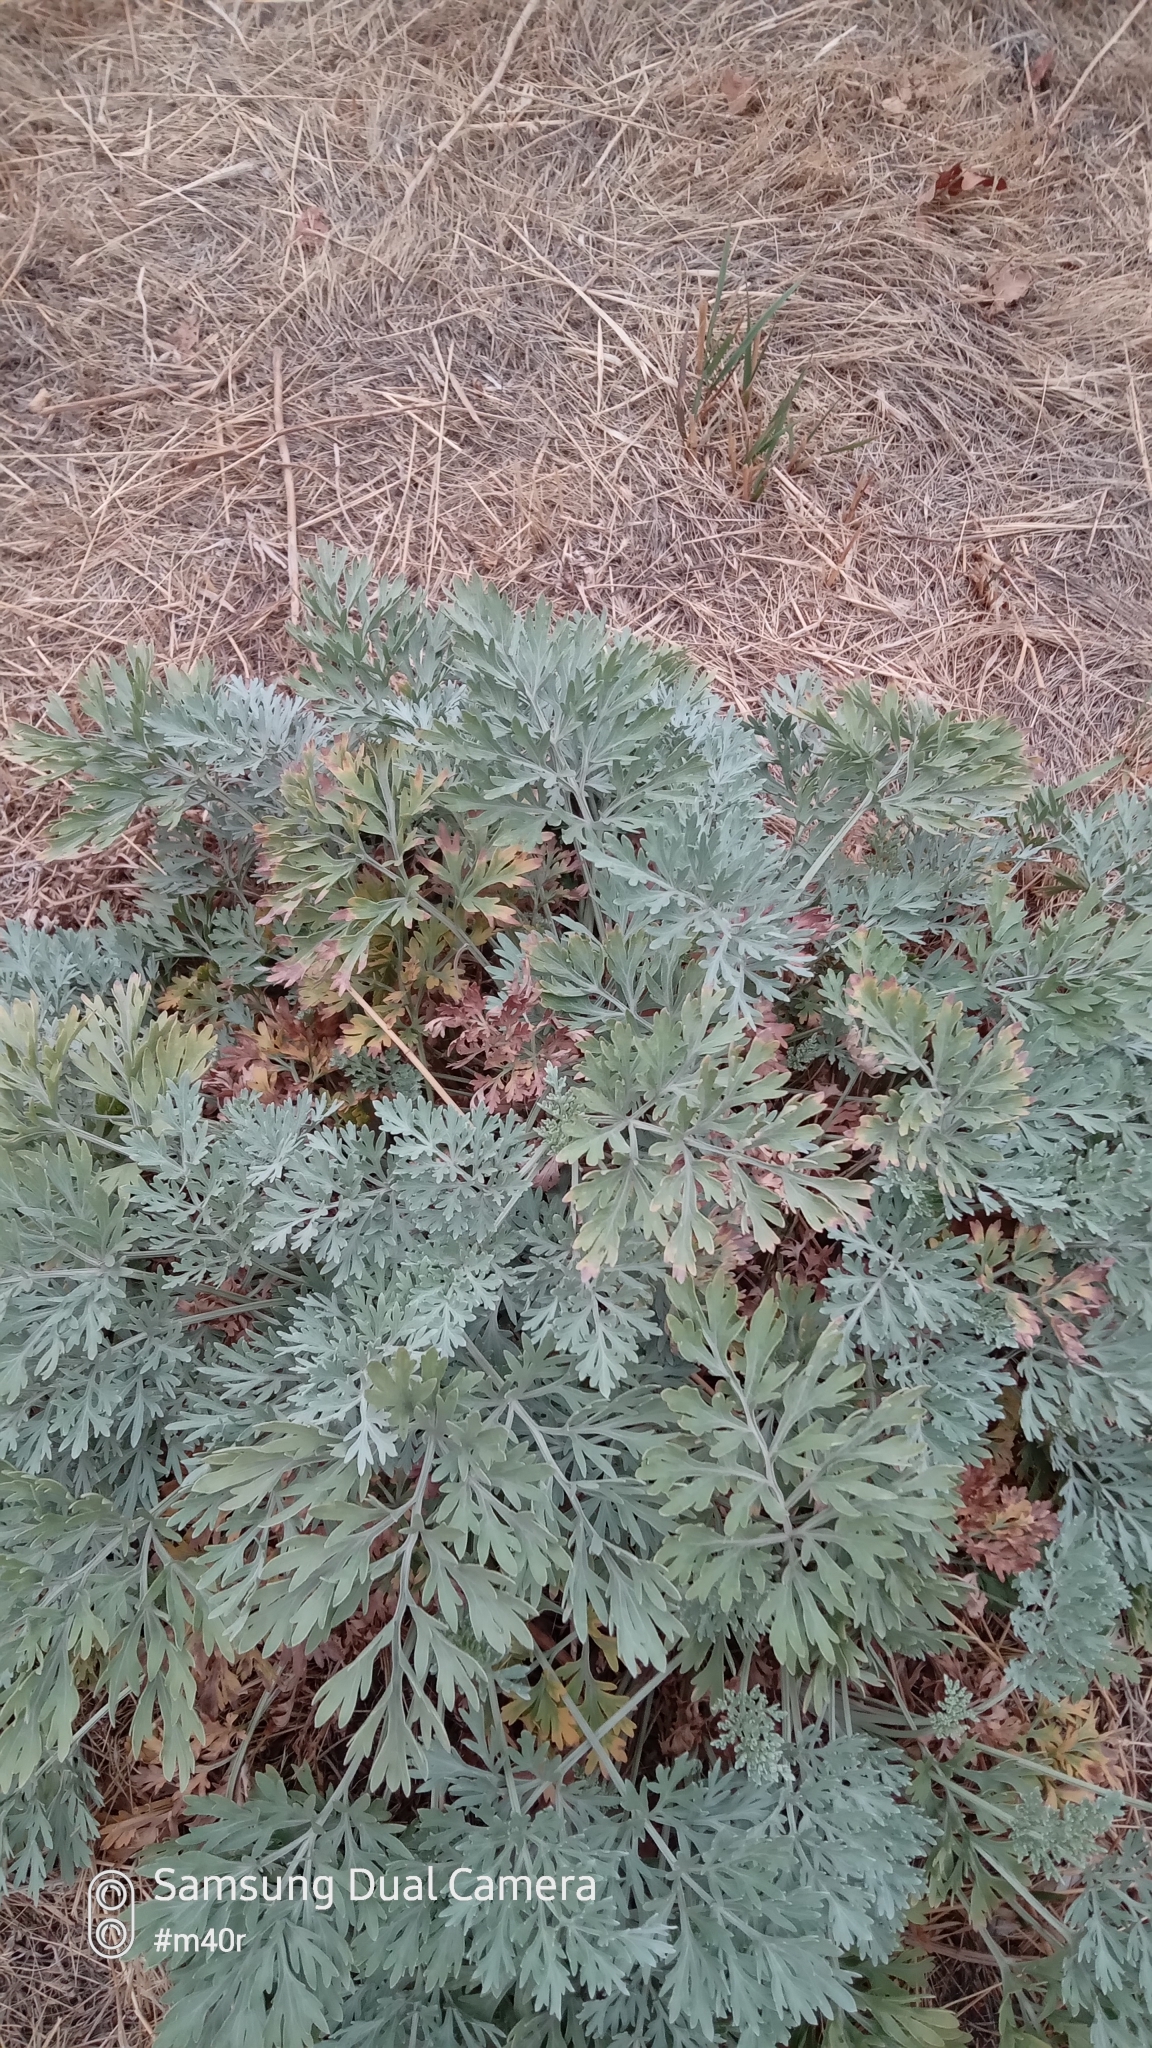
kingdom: Plantae
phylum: Tracheophyta
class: Magnoliopsida
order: Asterales
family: Asteraceae
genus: Artemisia
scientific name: Artemisia absinthium
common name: Wormwood
